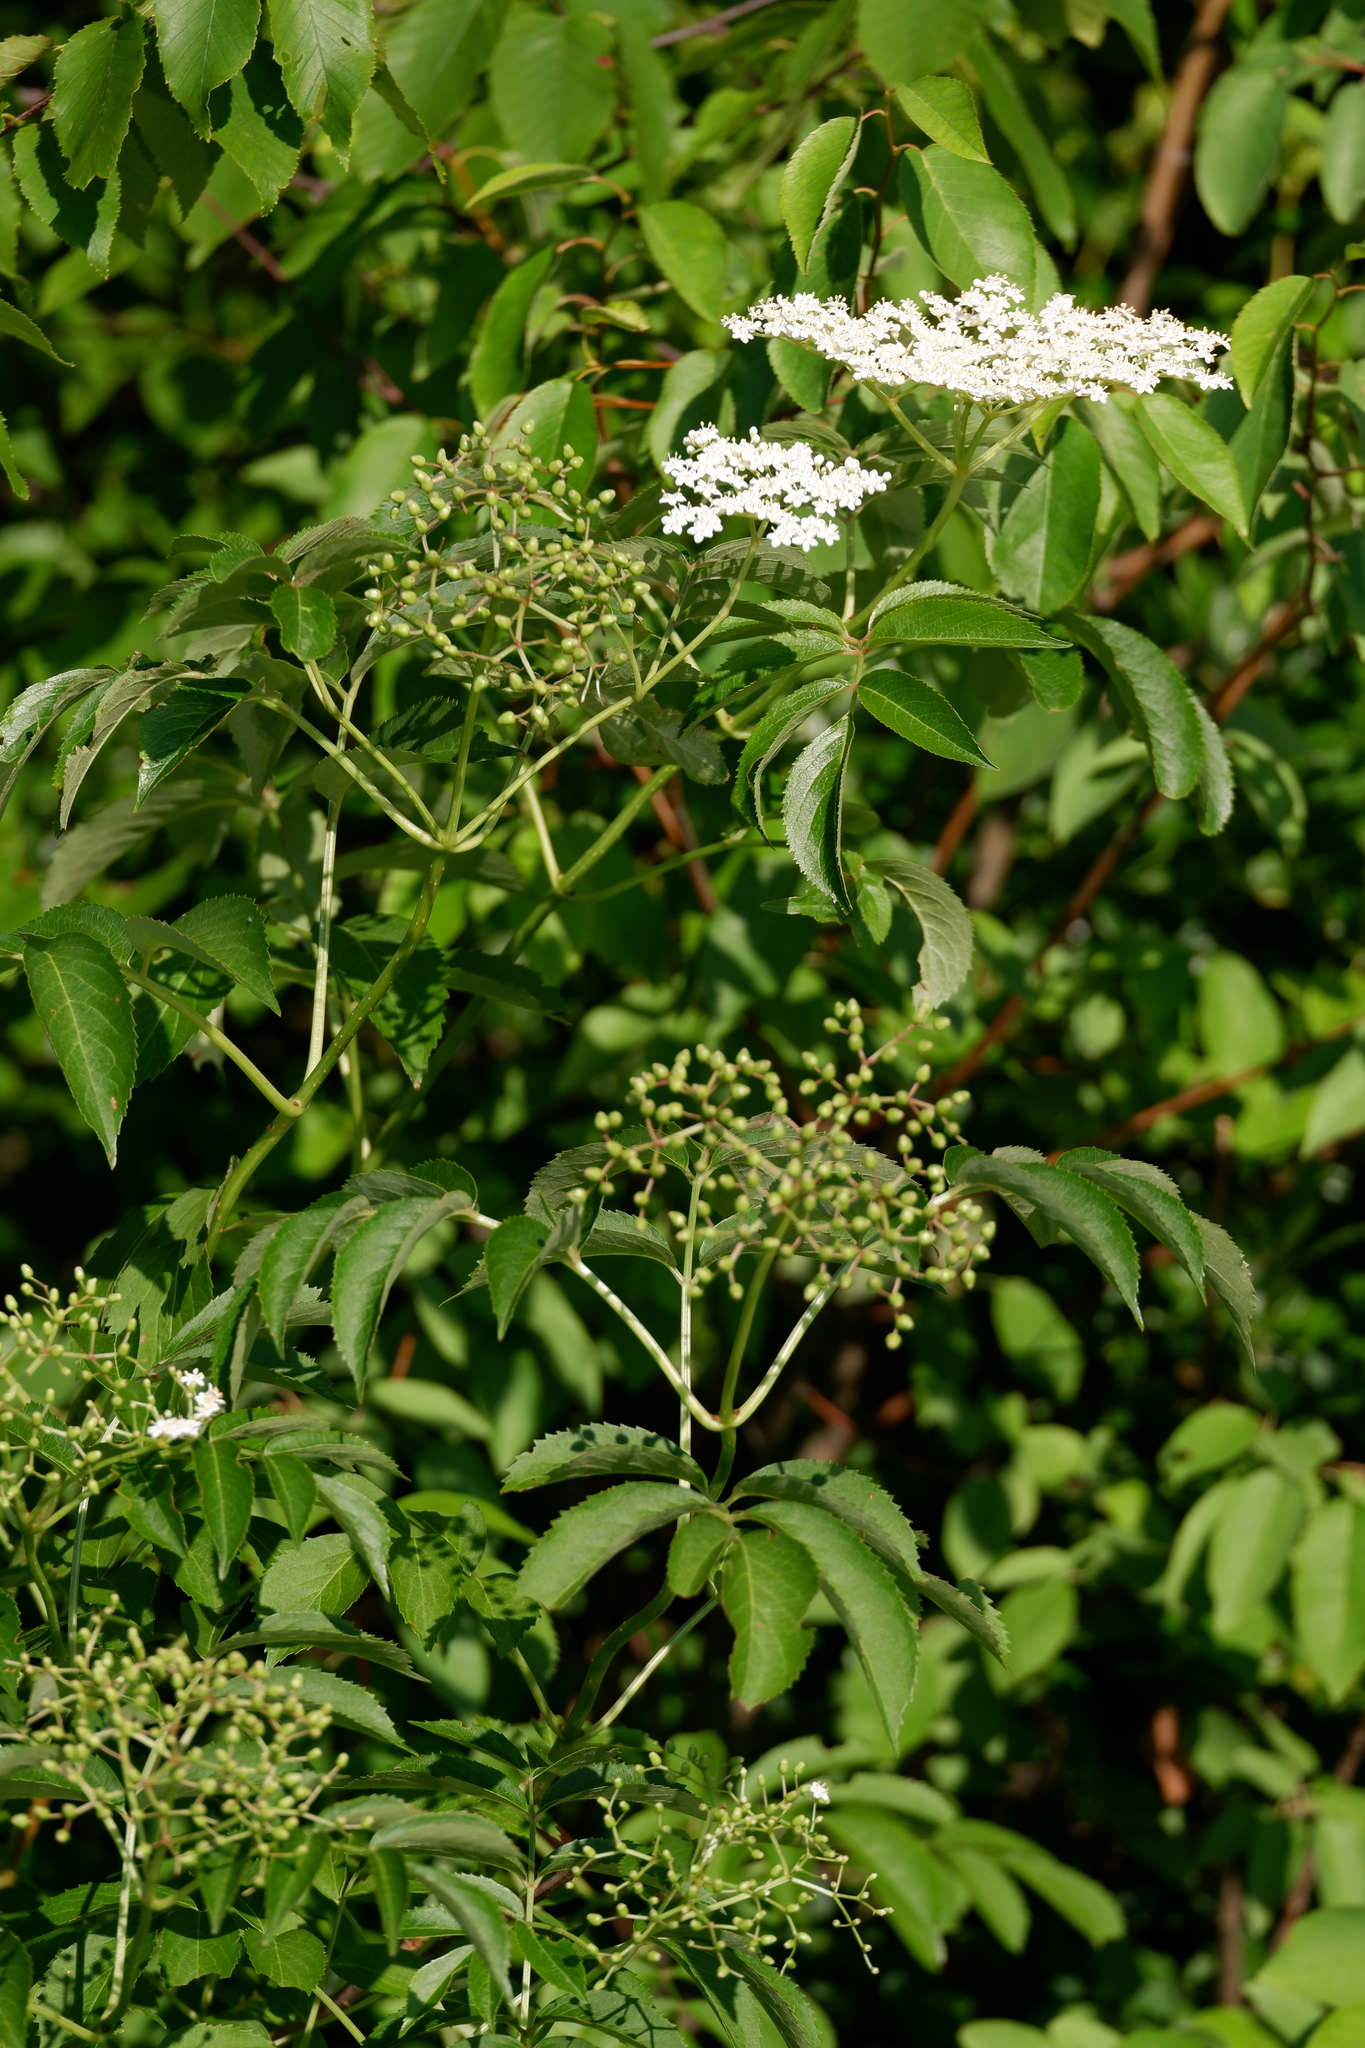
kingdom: Plantae
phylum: Tracheophyta
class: Magnoliopsida
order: Dipsacales
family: Viburnaceae
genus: Sambucus
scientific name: Sambucus canadensis
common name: American elder
